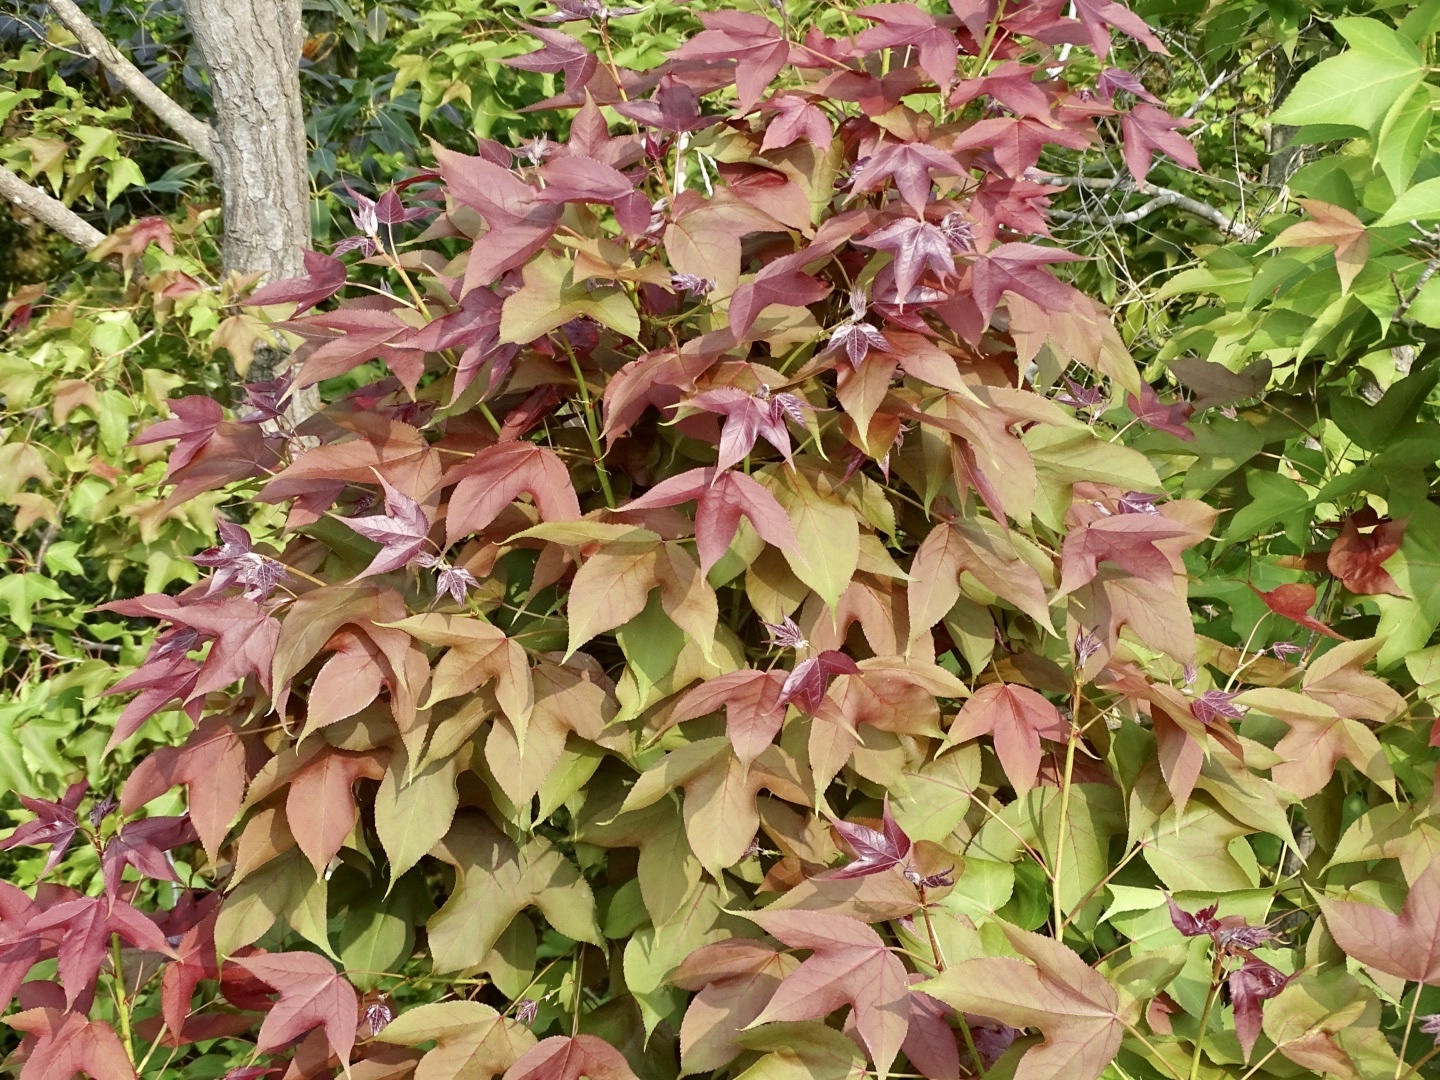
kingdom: Plantae
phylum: Tracheophyta
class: Magnoliopsida
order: Saxifragales
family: Altingiaceae
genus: Liquidambar
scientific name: Liquidambar formosana
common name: Chinese sweet gum
